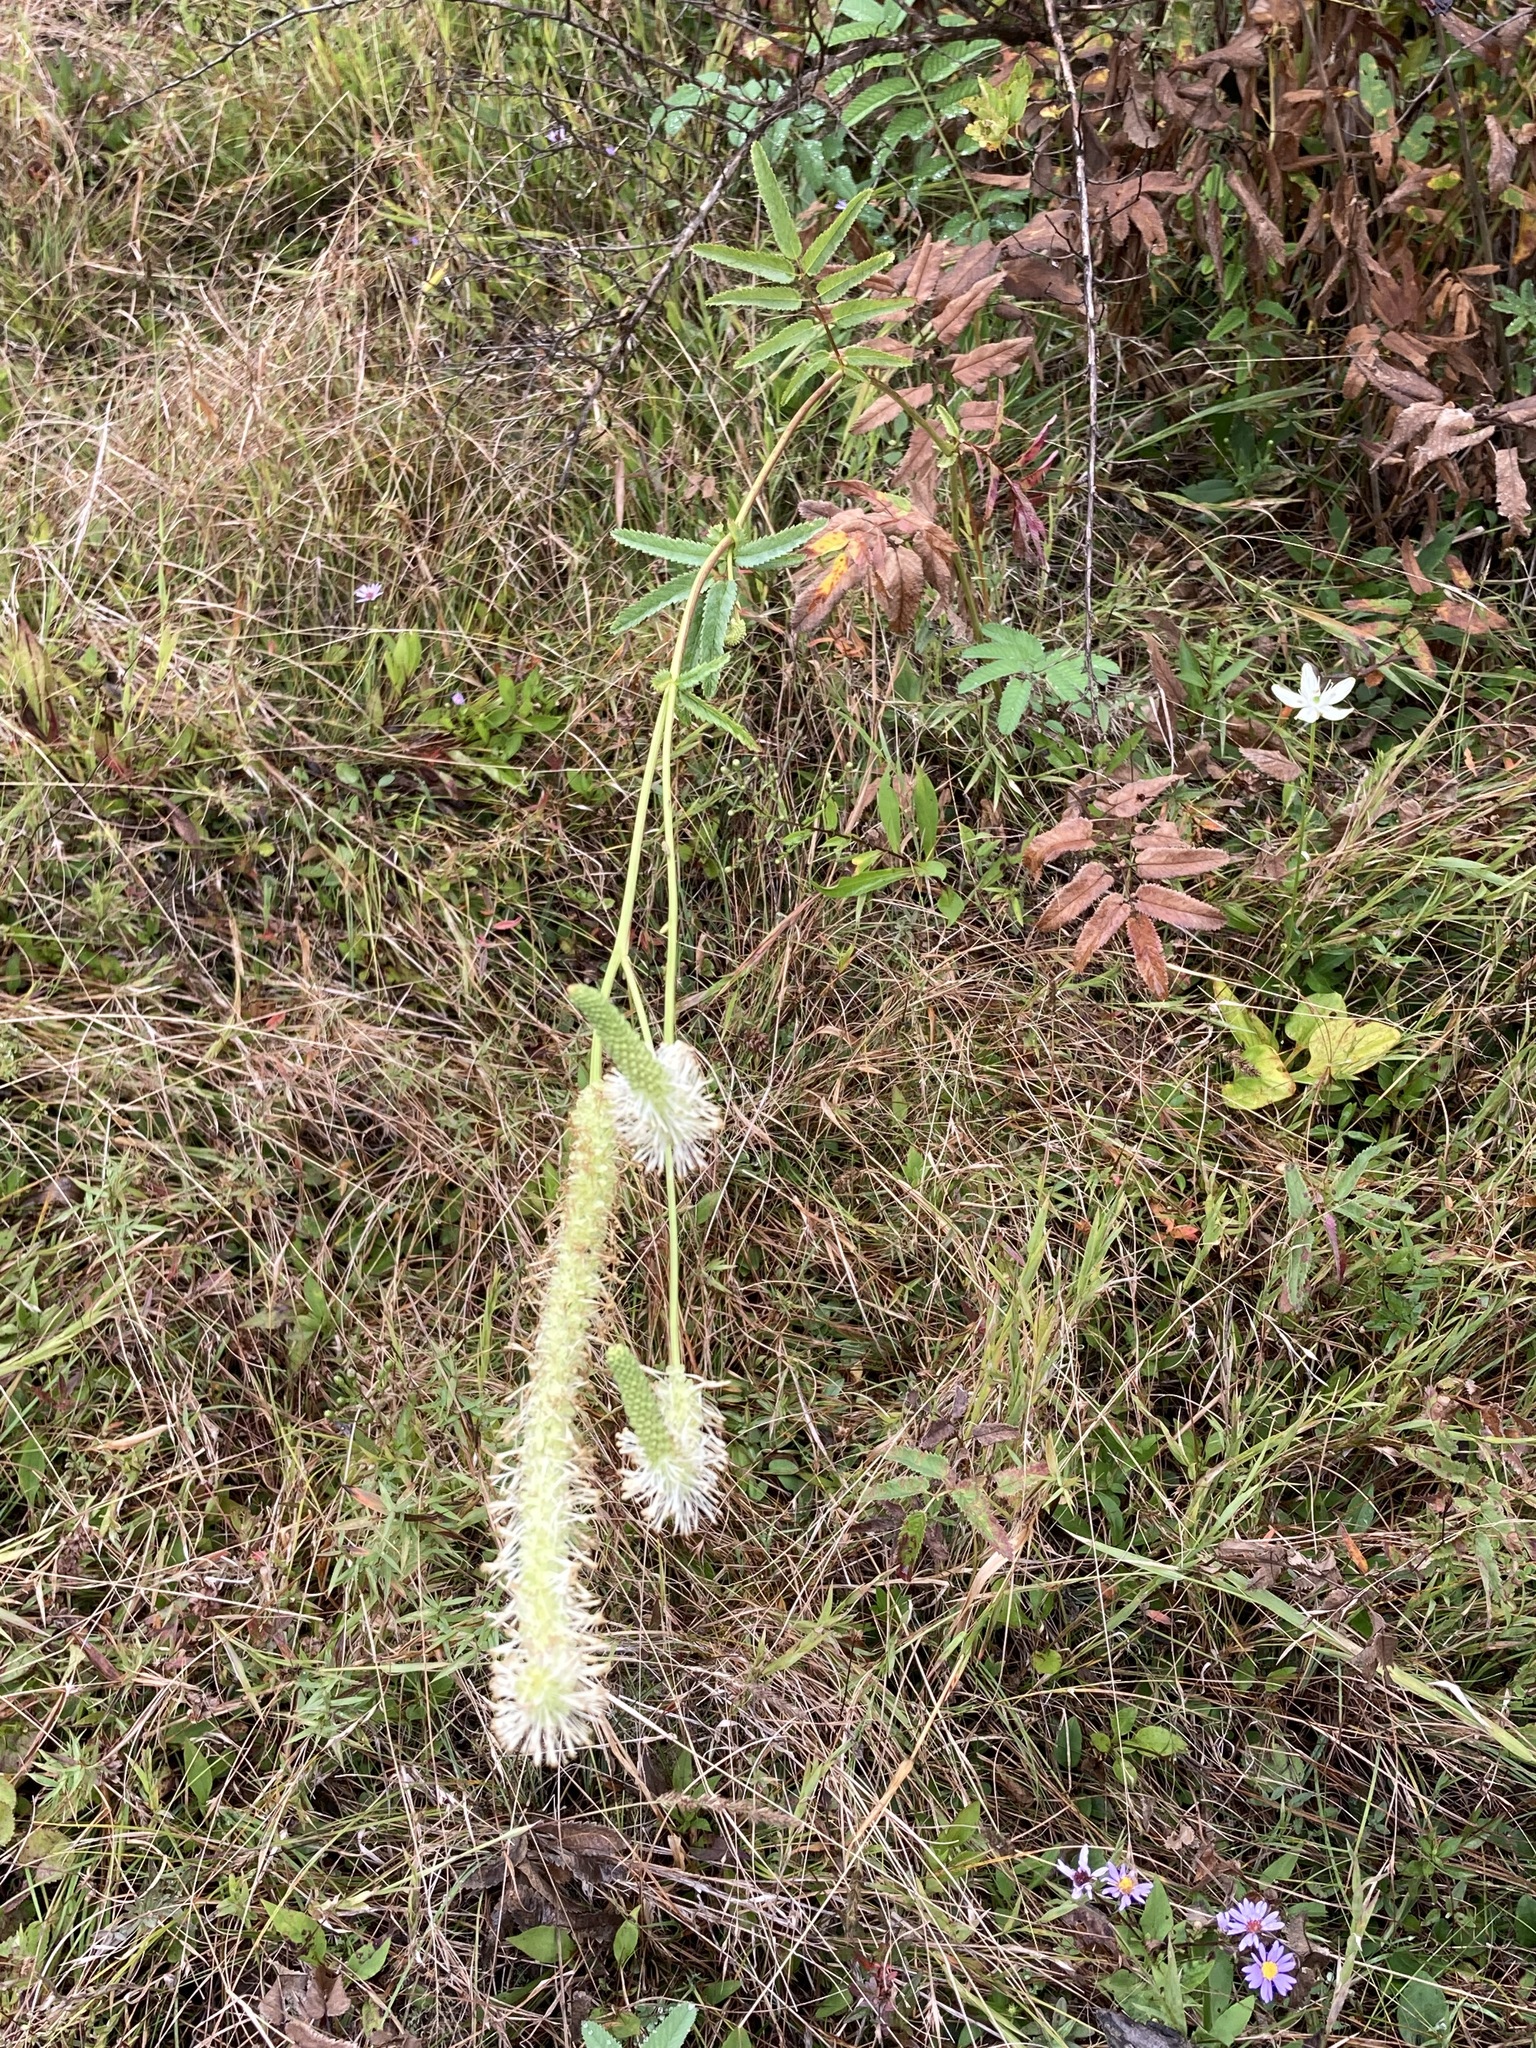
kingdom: Plantae
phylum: Tracheophyta
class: Magnoliopsida
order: Rosales
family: Rosaceae
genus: Sanguisorba
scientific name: Sanguisorba canadensis
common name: White burnet
